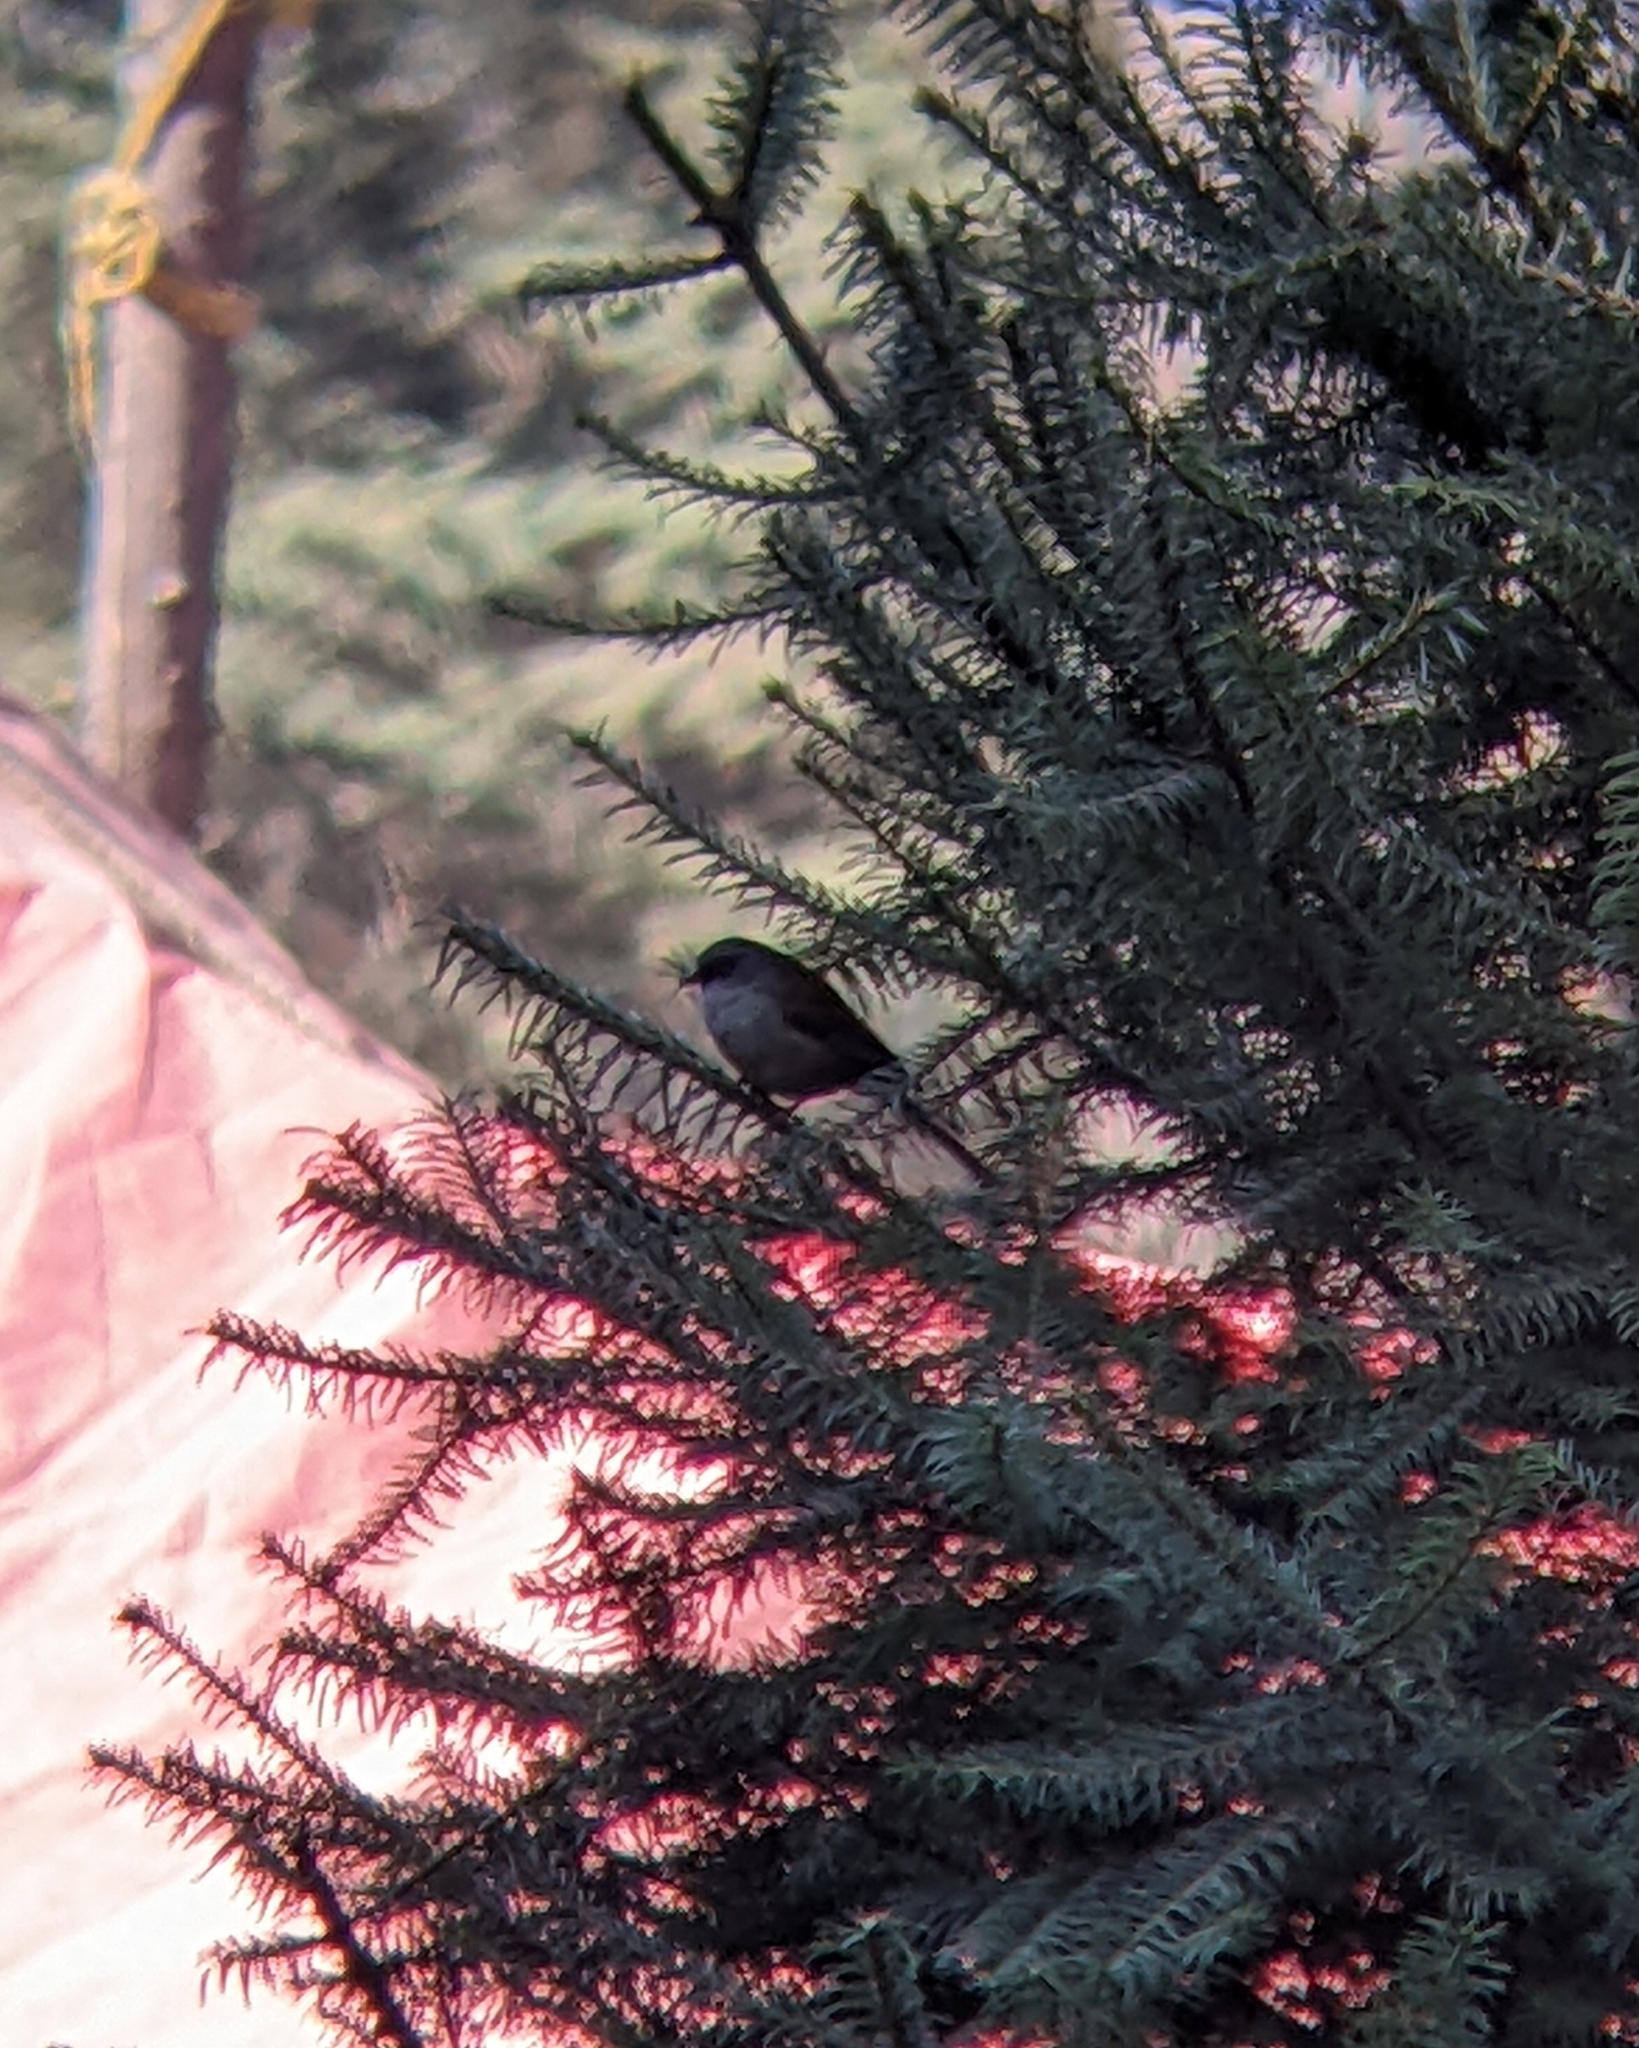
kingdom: Animalia
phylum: Chordata
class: Aves
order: Passeriformes
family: Passerellidae
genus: Junco
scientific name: Junco phaeonotus
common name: Yellow-eyed junco
